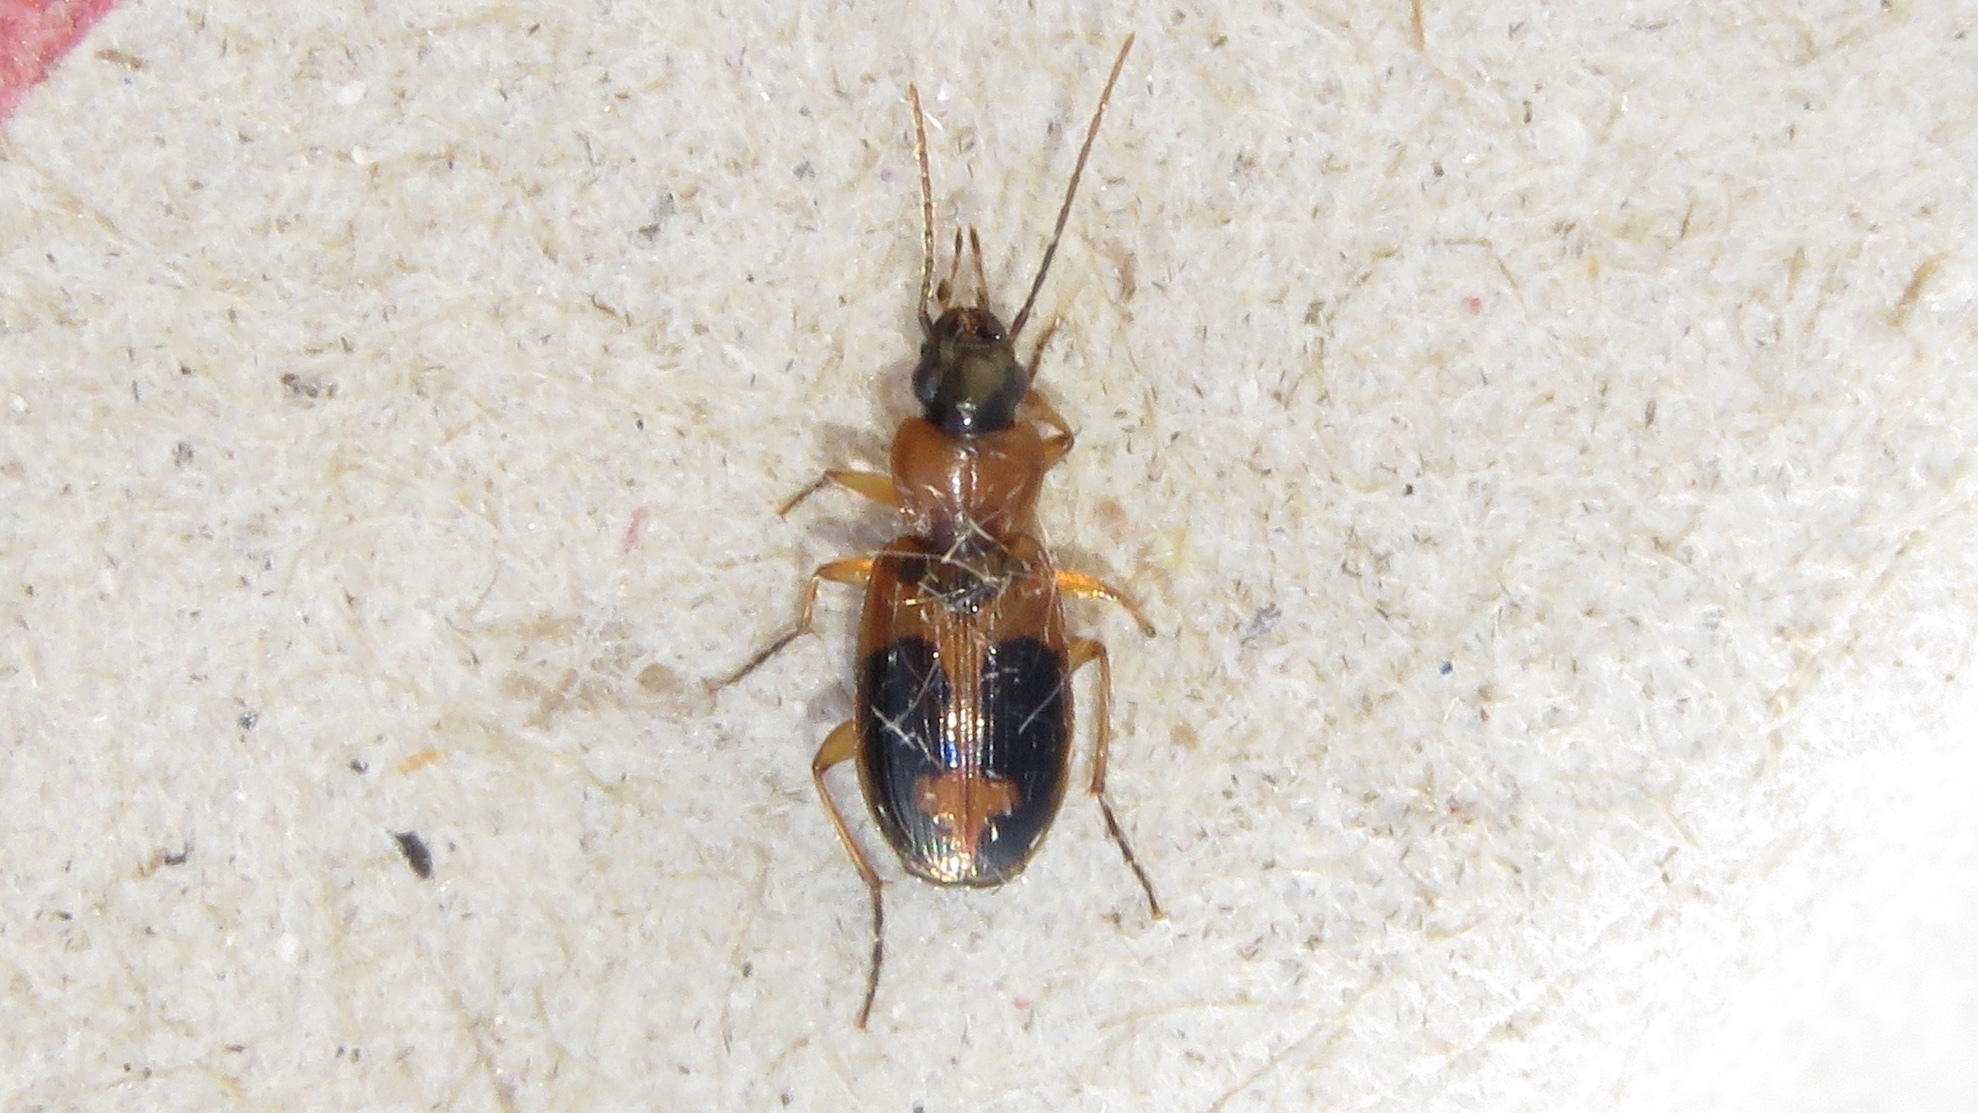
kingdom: Animalia
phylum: Arthropoda
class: Insecta
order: Coleoptera
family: Carabidae
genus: Badister
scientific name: Badister neopulchellus
